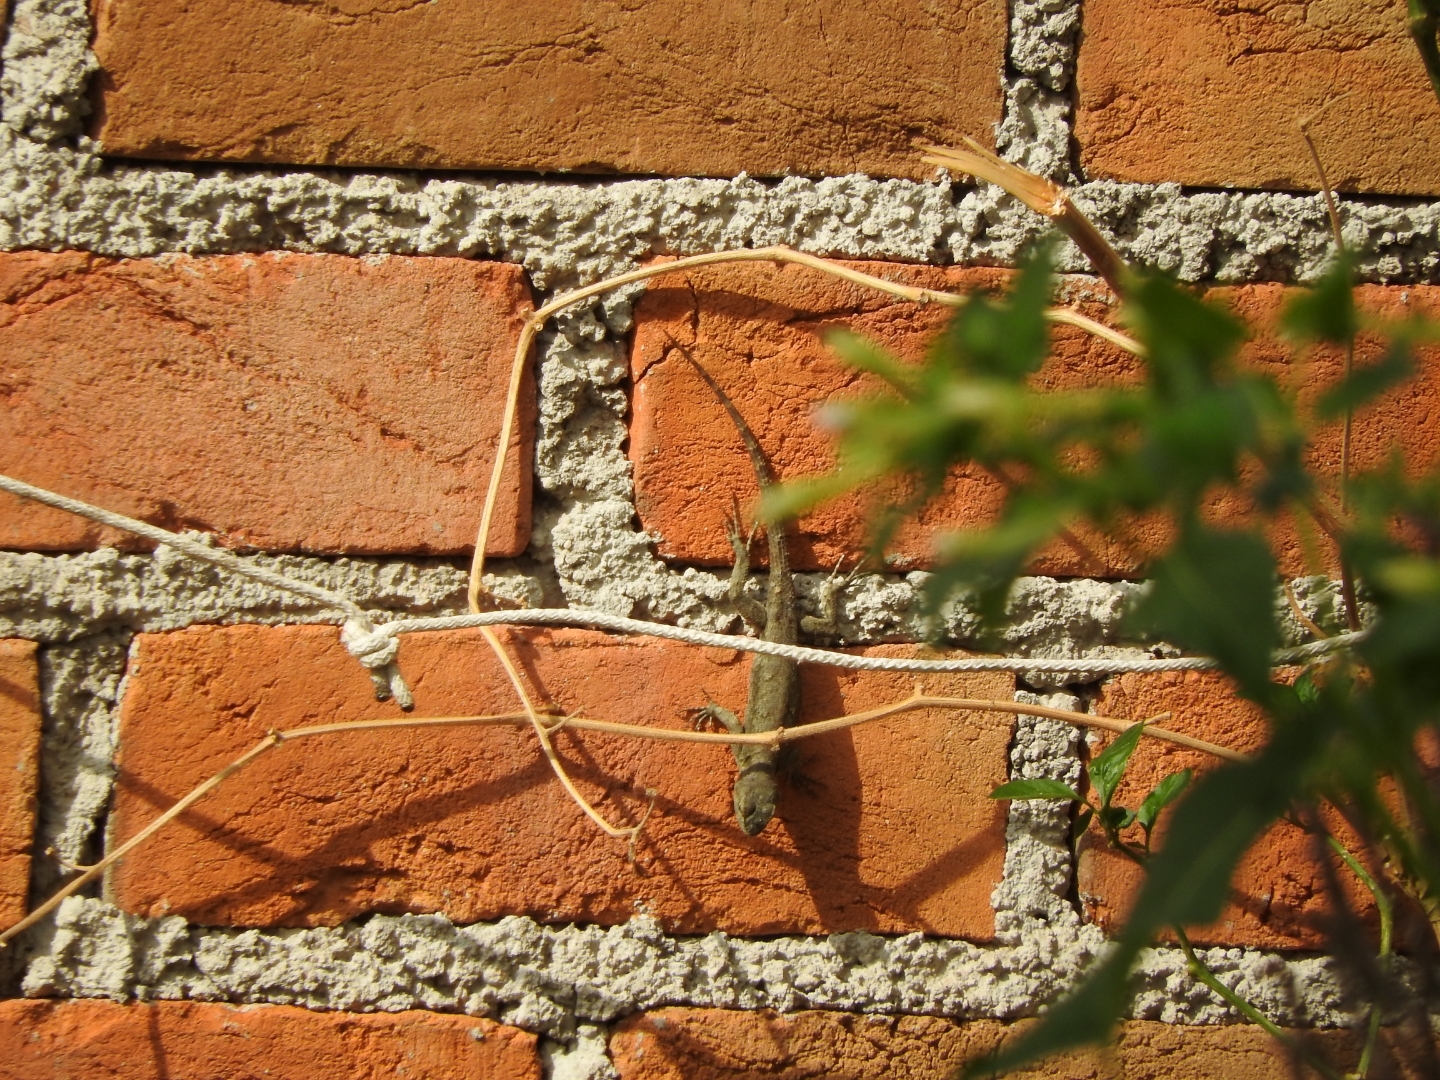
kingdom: Animalia
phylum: Chordata
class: Squamata
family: Phrynosomatidae
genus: Sceloporus
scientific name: Sceloporus grammicus
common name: Mesquite lizard
